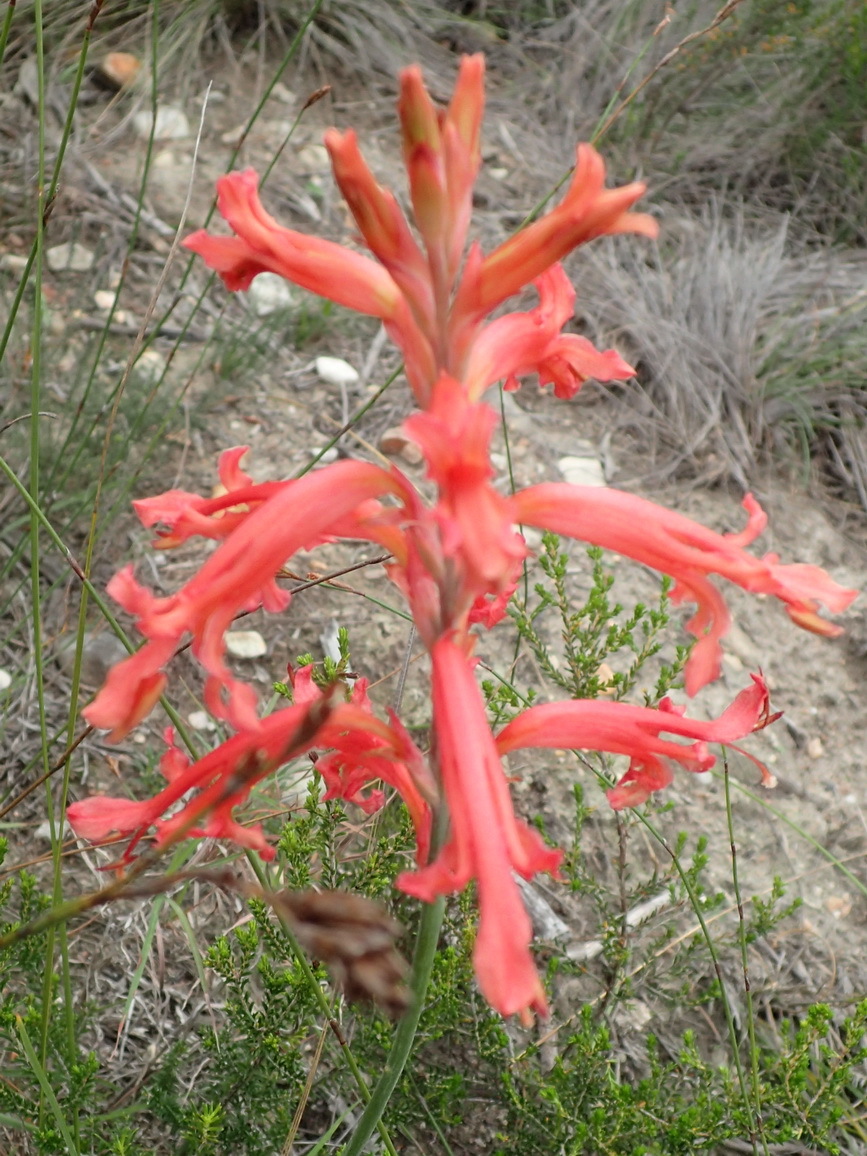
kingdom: Plantae
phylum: Tracheophyta
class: Liliopsida
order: Asparagales
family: Iridaceae
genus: Tritoniopsis
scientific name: Tritoniopsis antholyza
